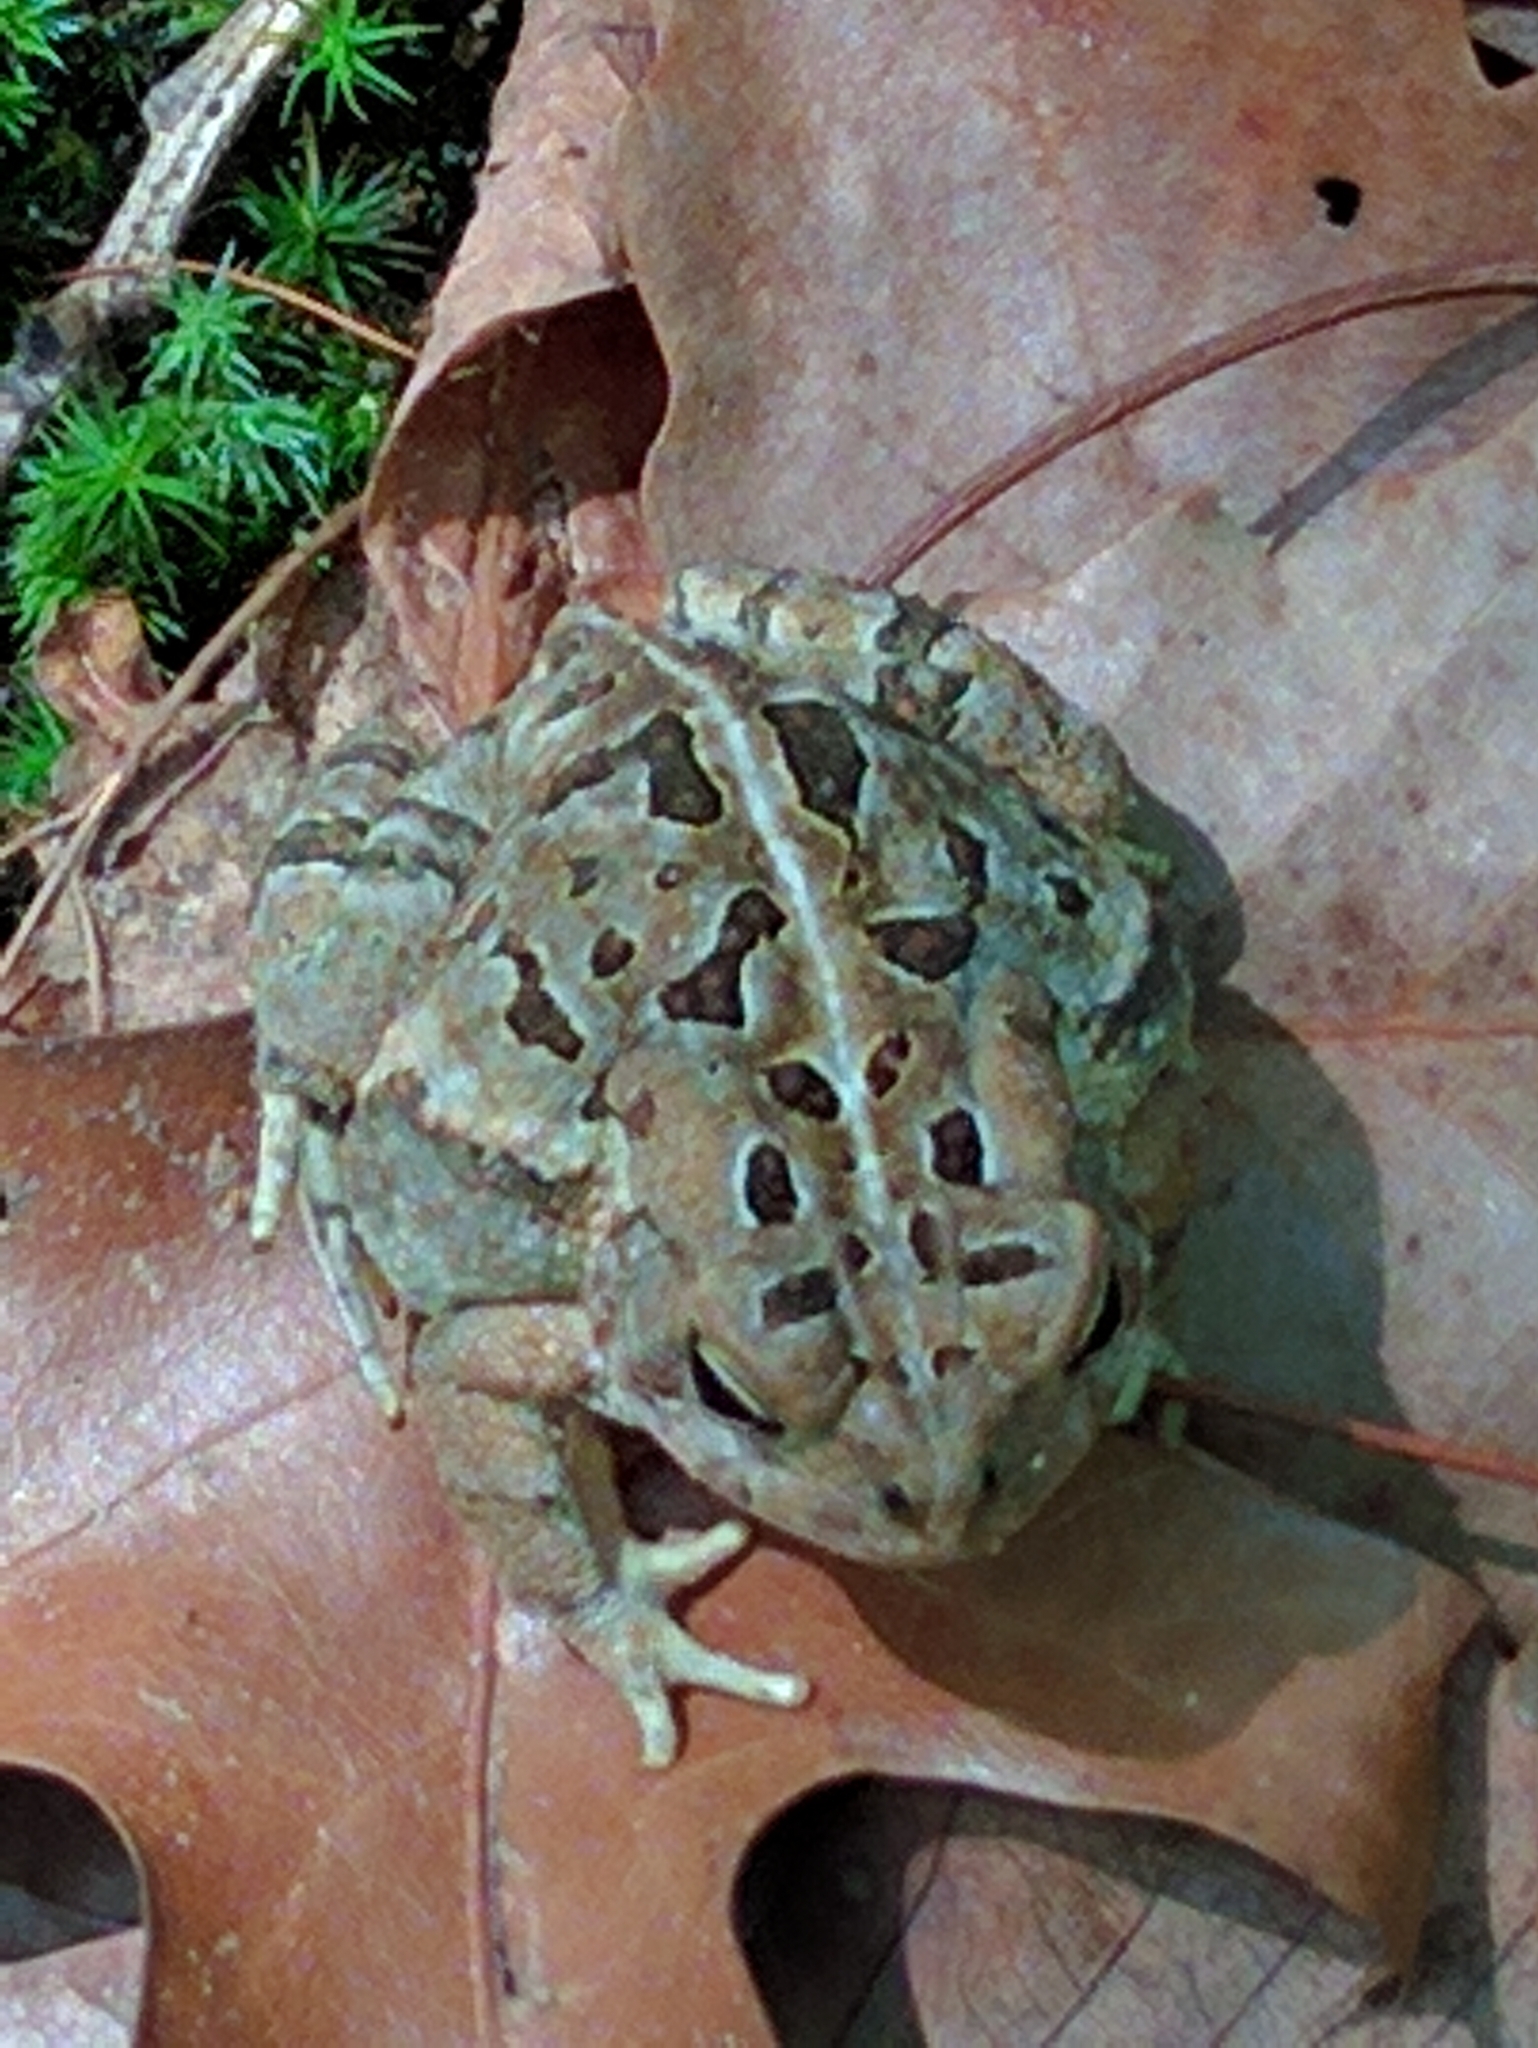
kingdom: Animalia
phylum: Chordata
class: Amphibia
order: Anura
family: Bufonidae
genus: Anaxyrus
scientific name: Anaxyrus fowleri
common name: Fowler's toad
